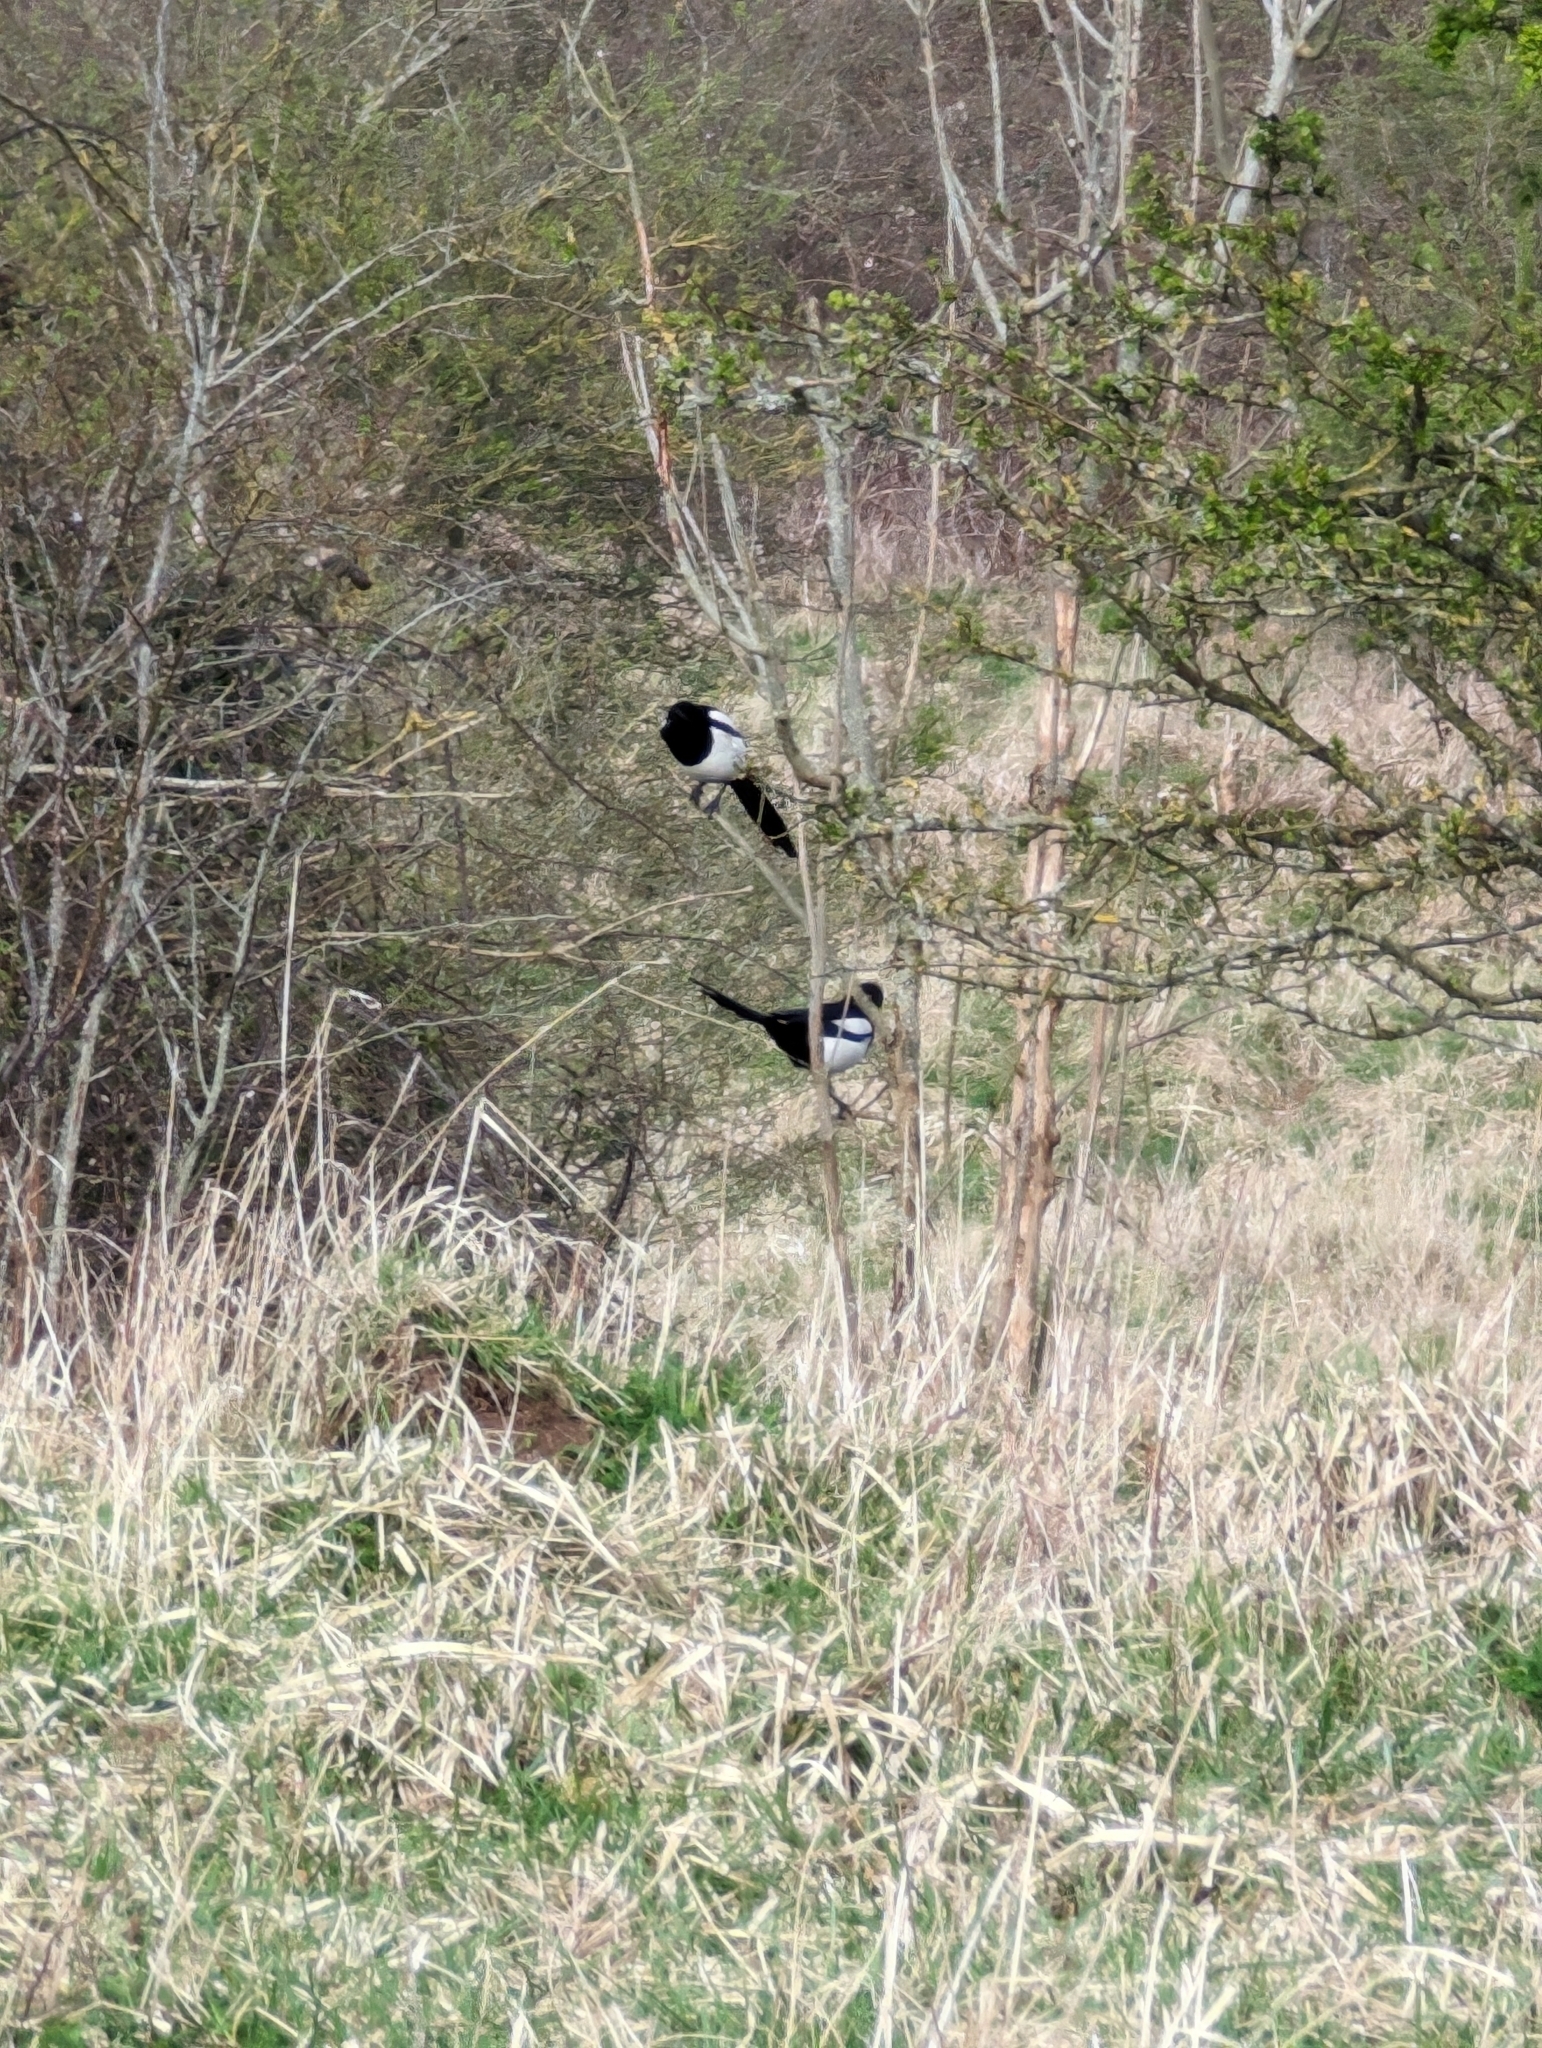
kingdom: Animalia
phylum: Chordata
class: Aves
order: Passeriformes
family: Corvidae
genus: Pica
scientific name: Pica pica
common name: Eurasian magpie
